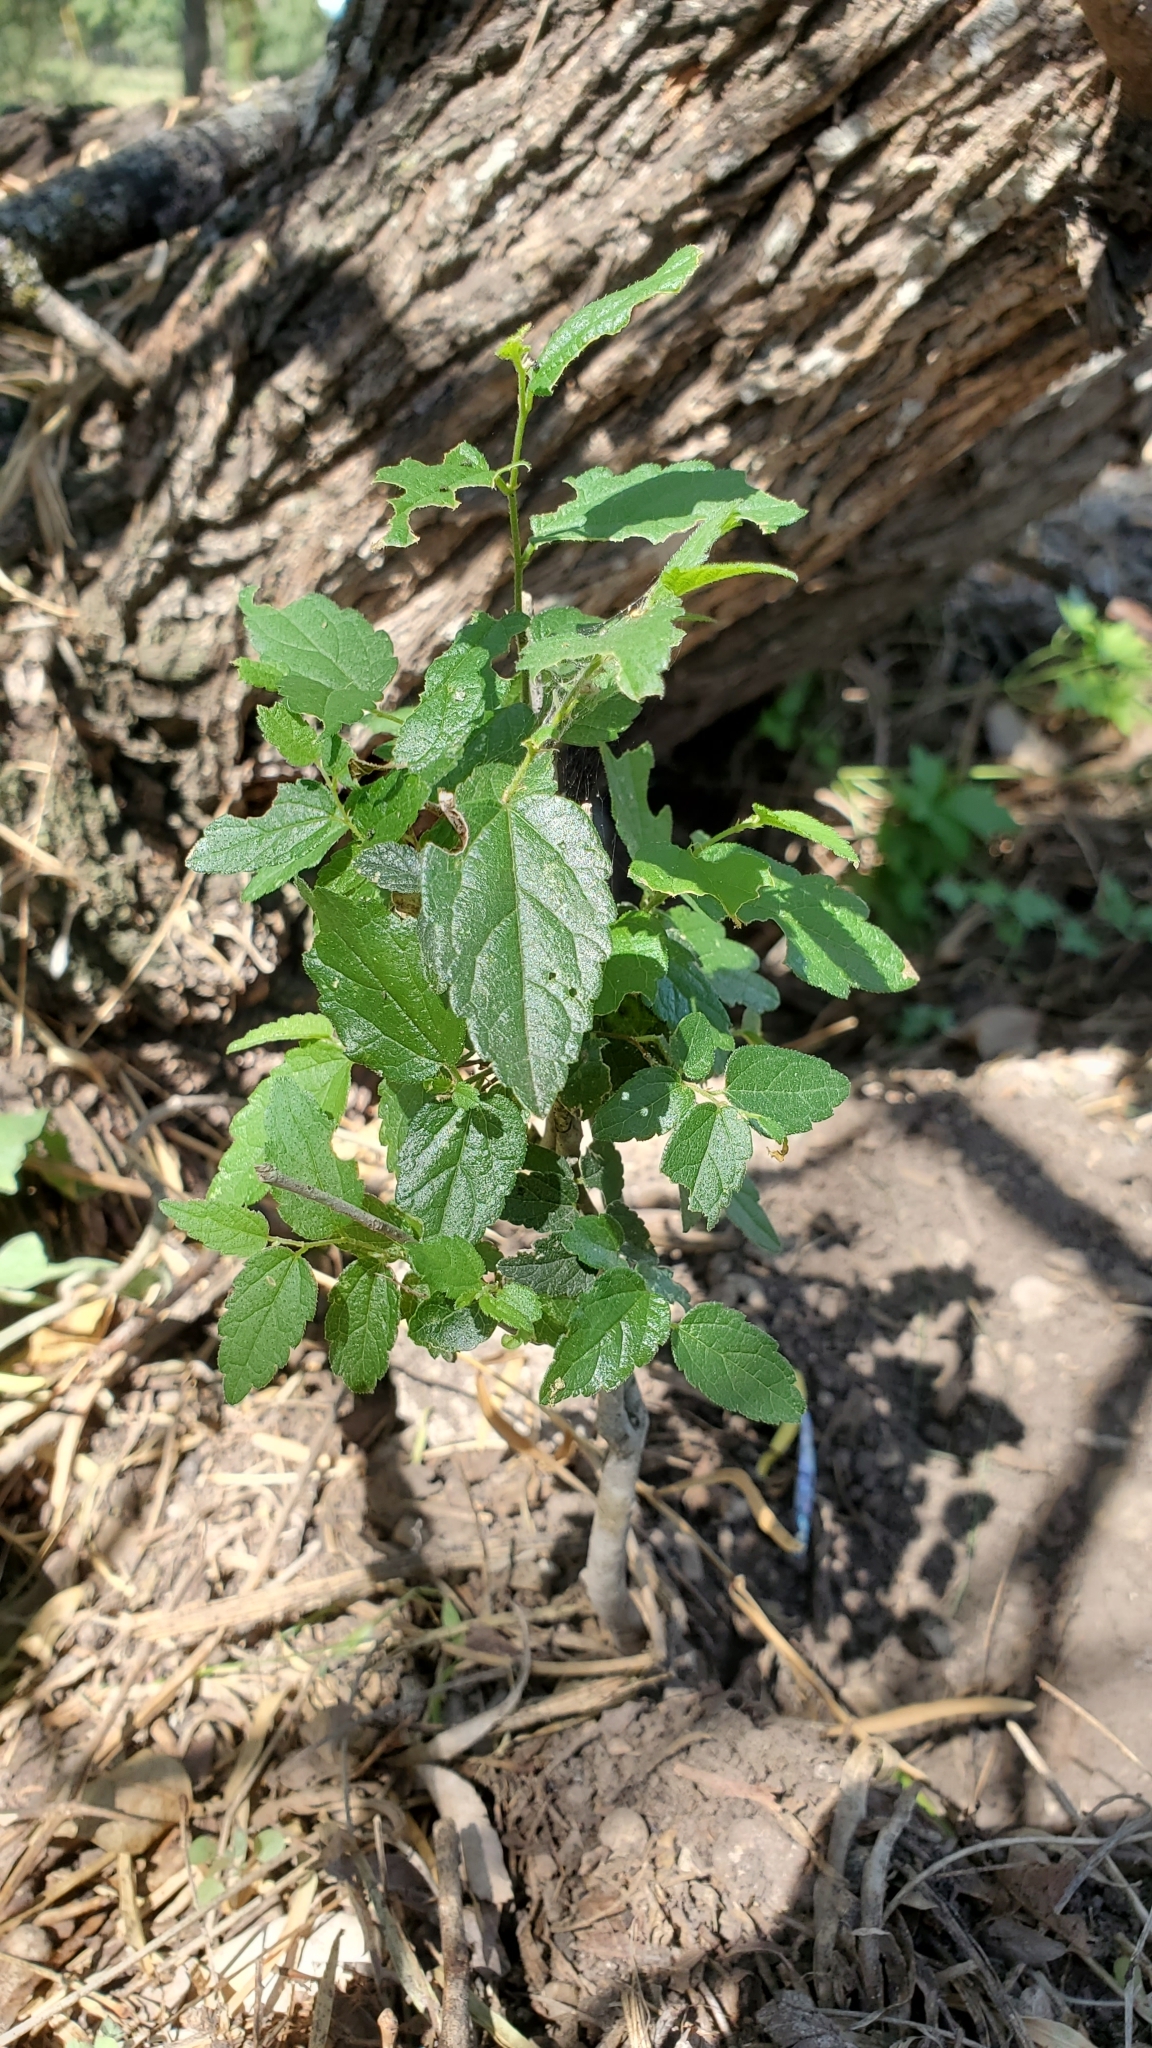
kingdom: Plantae
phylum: Tracheophyta
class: Magnoliopsida
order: Rosales
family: Cannabaceae
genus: Celtis
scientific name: Celtis reticulata
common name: Netleaf hackberry
